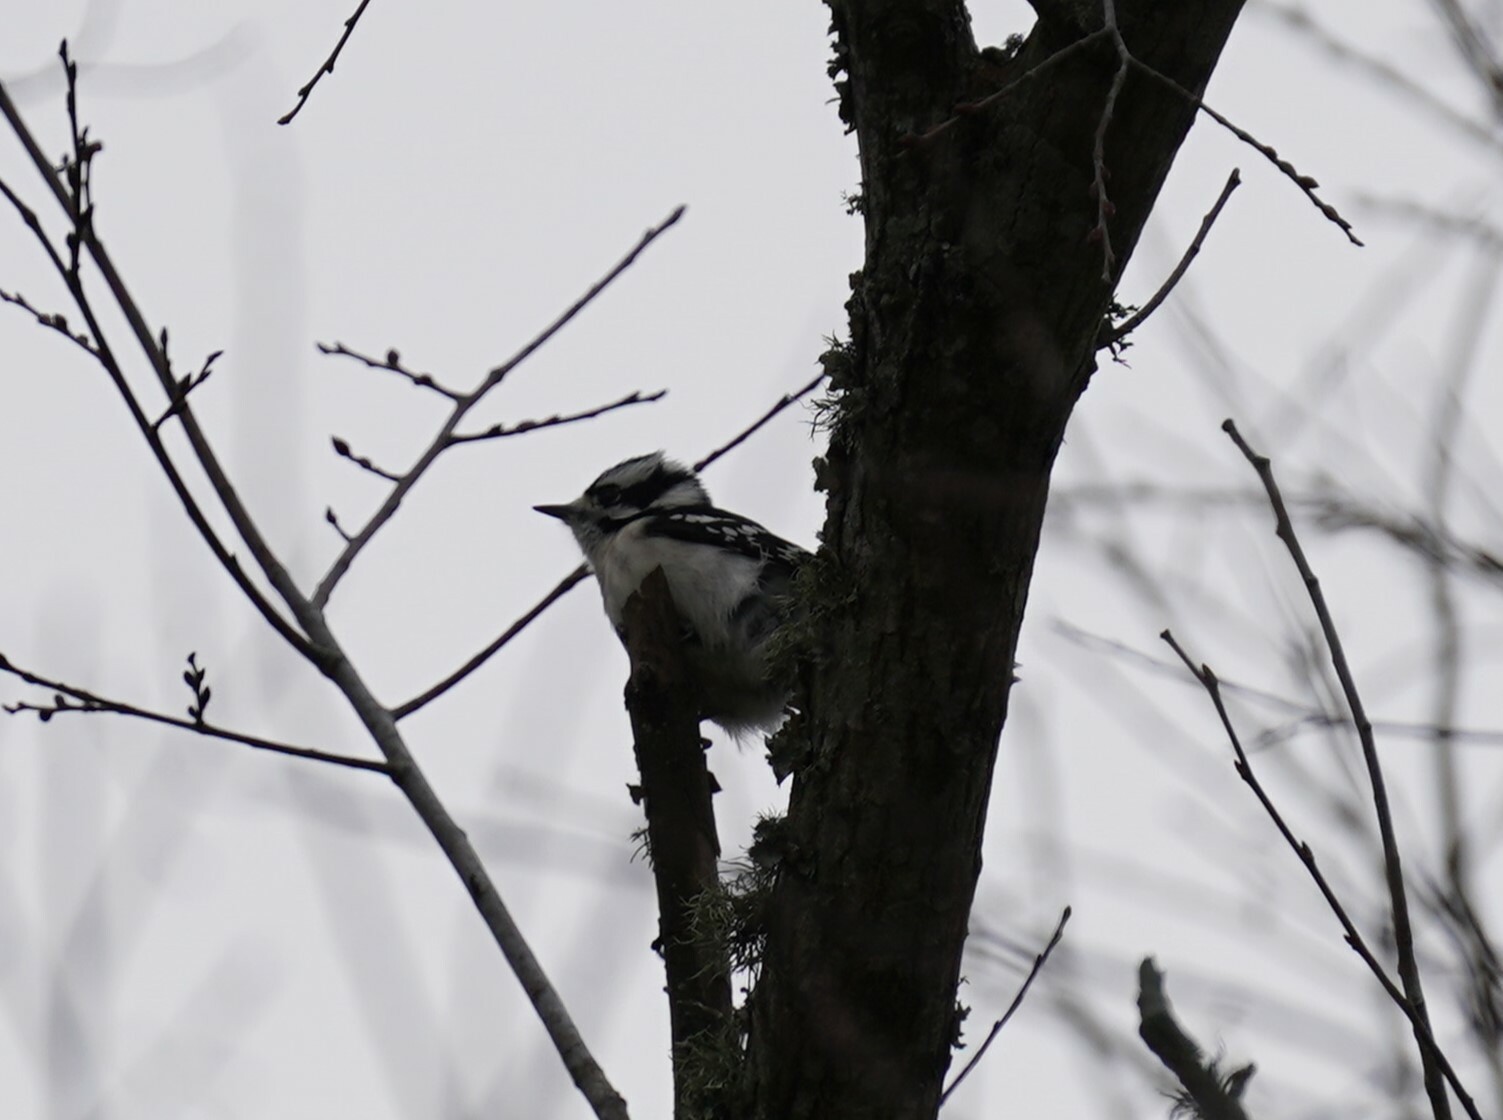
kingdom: Animalia
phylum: Chordata
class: Aves
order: Piciformes
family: Picidae
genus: Dryobates
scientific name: Dryobates pubescens
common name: Downy woodpecker
